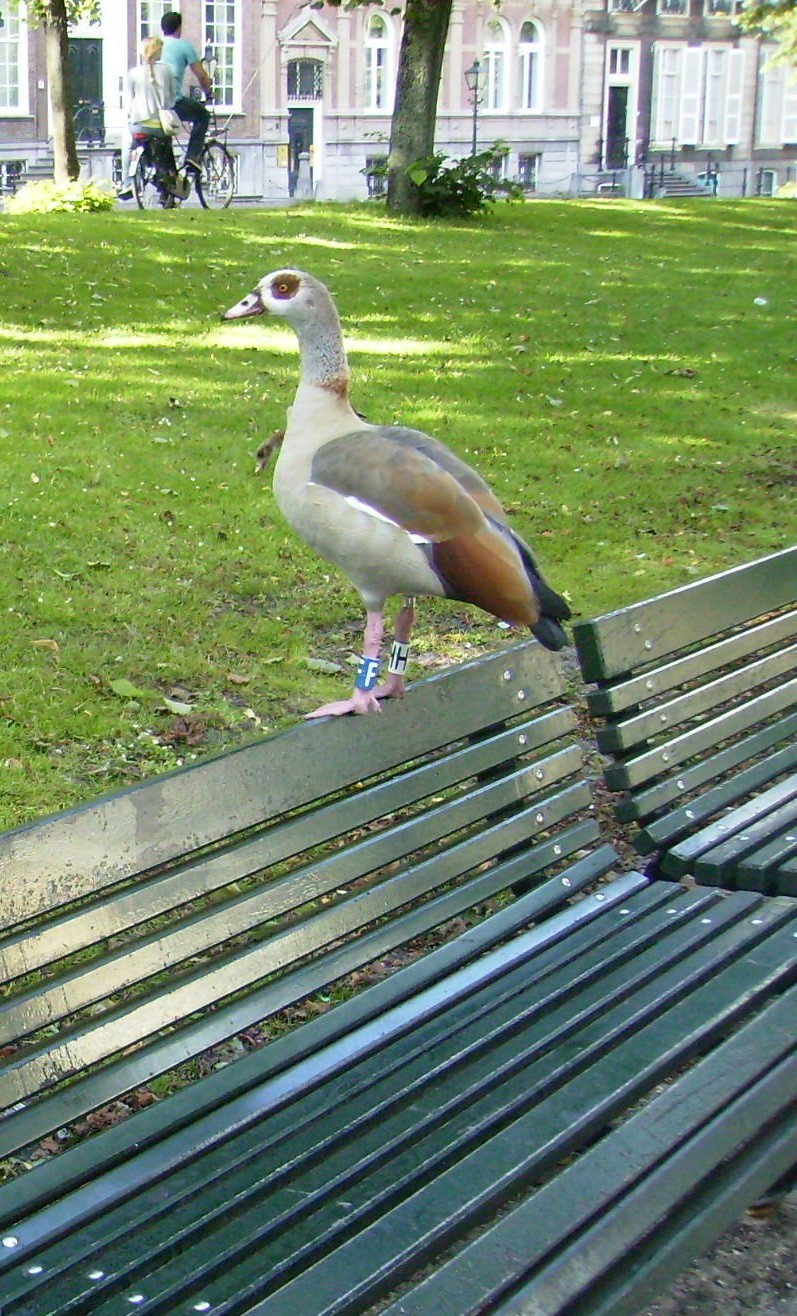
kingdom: Animalia
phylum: Chordata
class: Aves
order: Anseriformes
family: Anatidae
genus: Alopochen
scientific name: Alopochen aegyptiaca
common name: Egyptian goose
